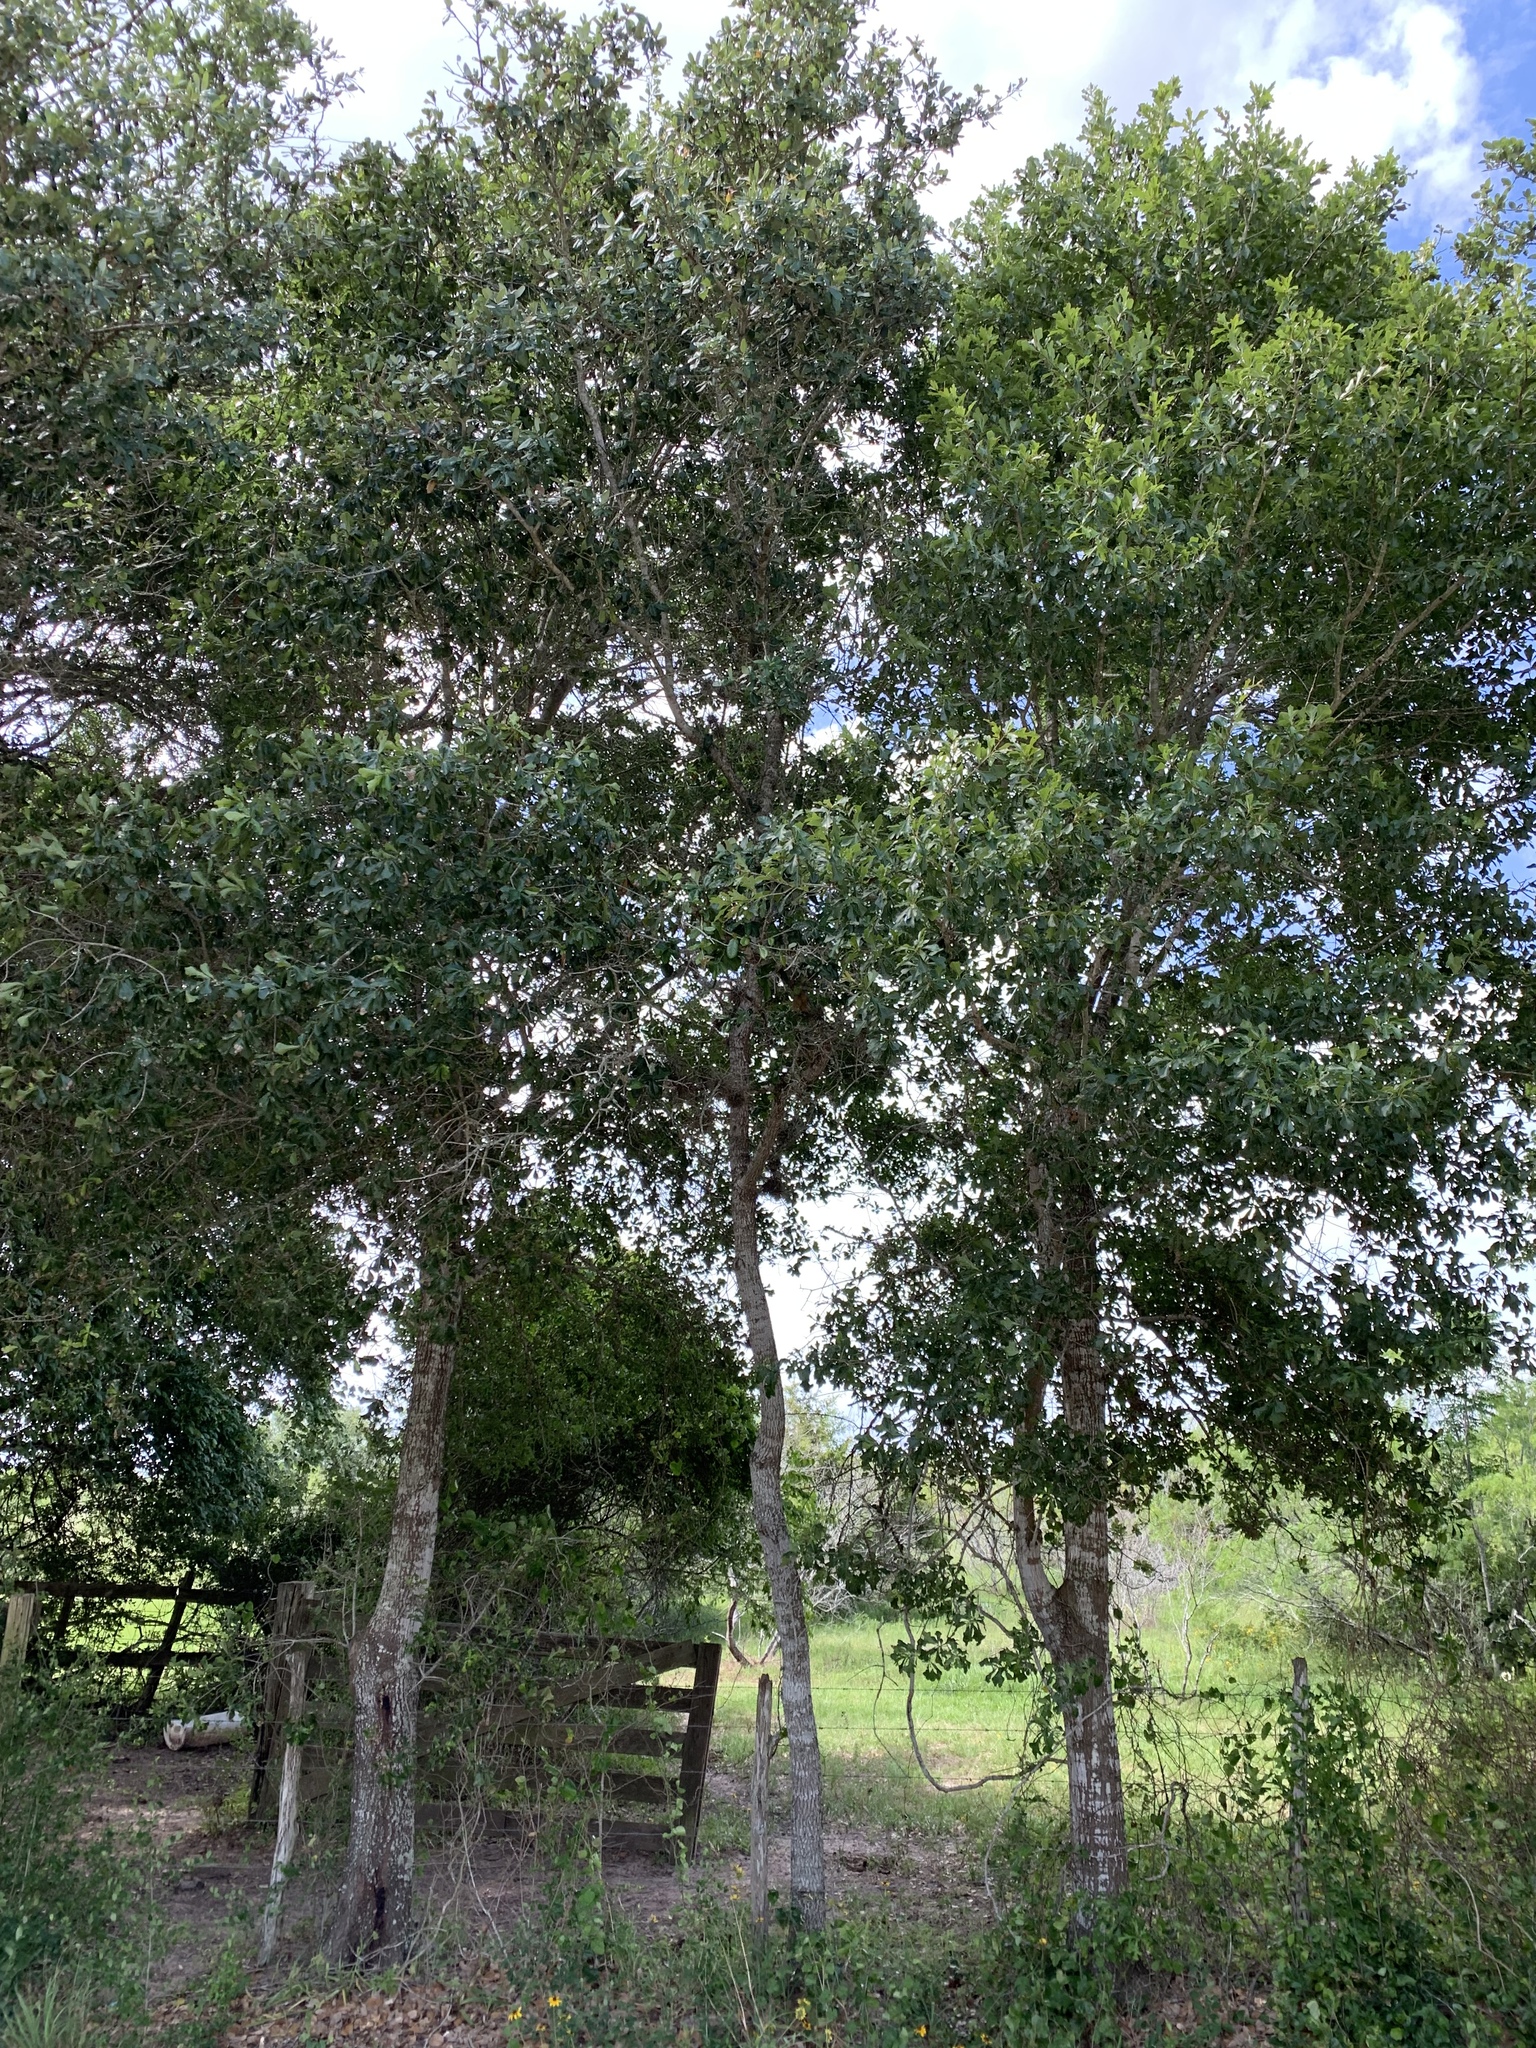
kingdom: Plantae
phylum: Tracheophyta
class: Magnoliopsida
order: Fagales
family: Fagaceae
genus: Quercus
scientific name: Quercus nigra
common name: Water oak
